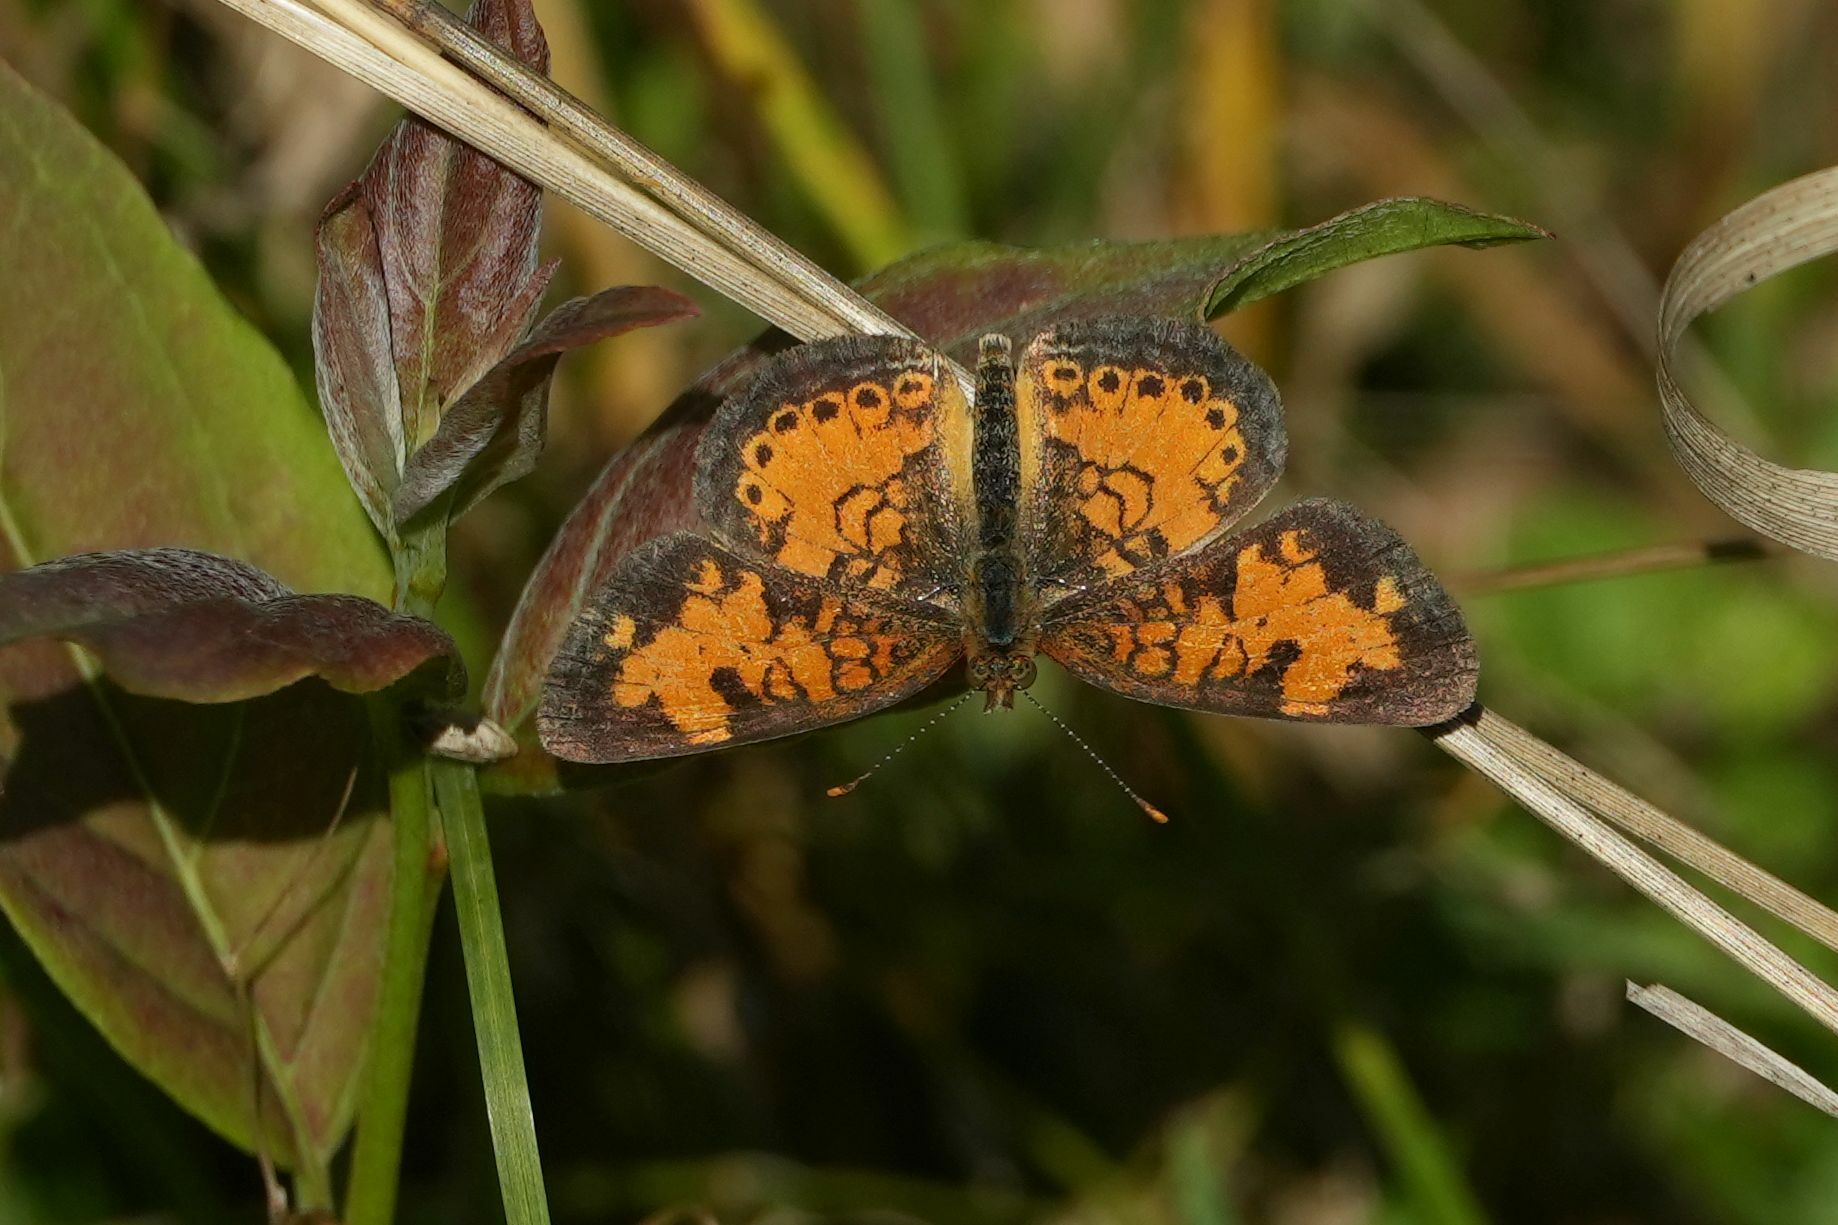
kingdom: Animalia
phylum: Arthropoda
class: Insecta
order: Lepidoptera
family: Nymphalidae
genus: Phyciodes
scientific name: Phyciodes tharos
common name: Pearl crescent
